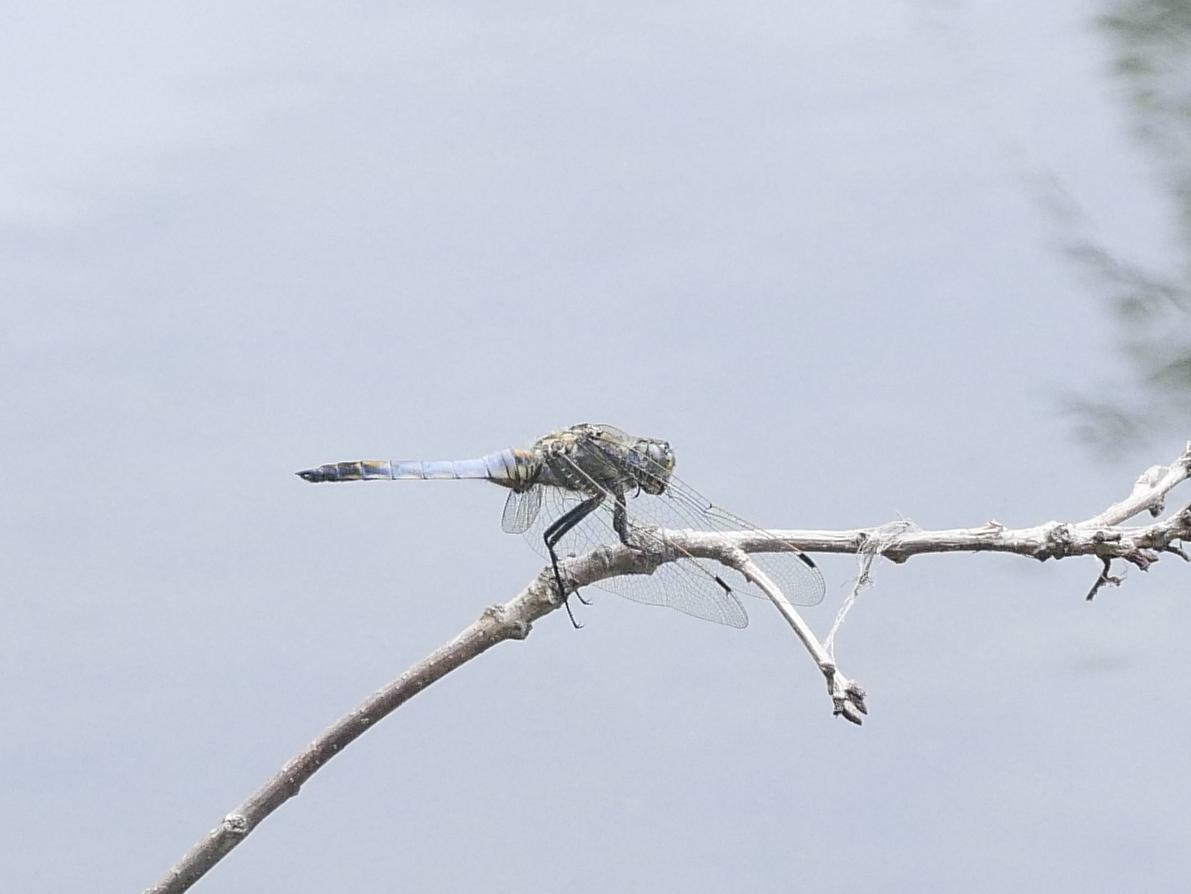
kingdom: Animalia
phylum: Arthropoda
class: Insecta
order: Odonata
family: Libellulidae
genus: Orthetrum
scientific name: Orthetrum cancellatum
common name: Black-tailed skimmer
